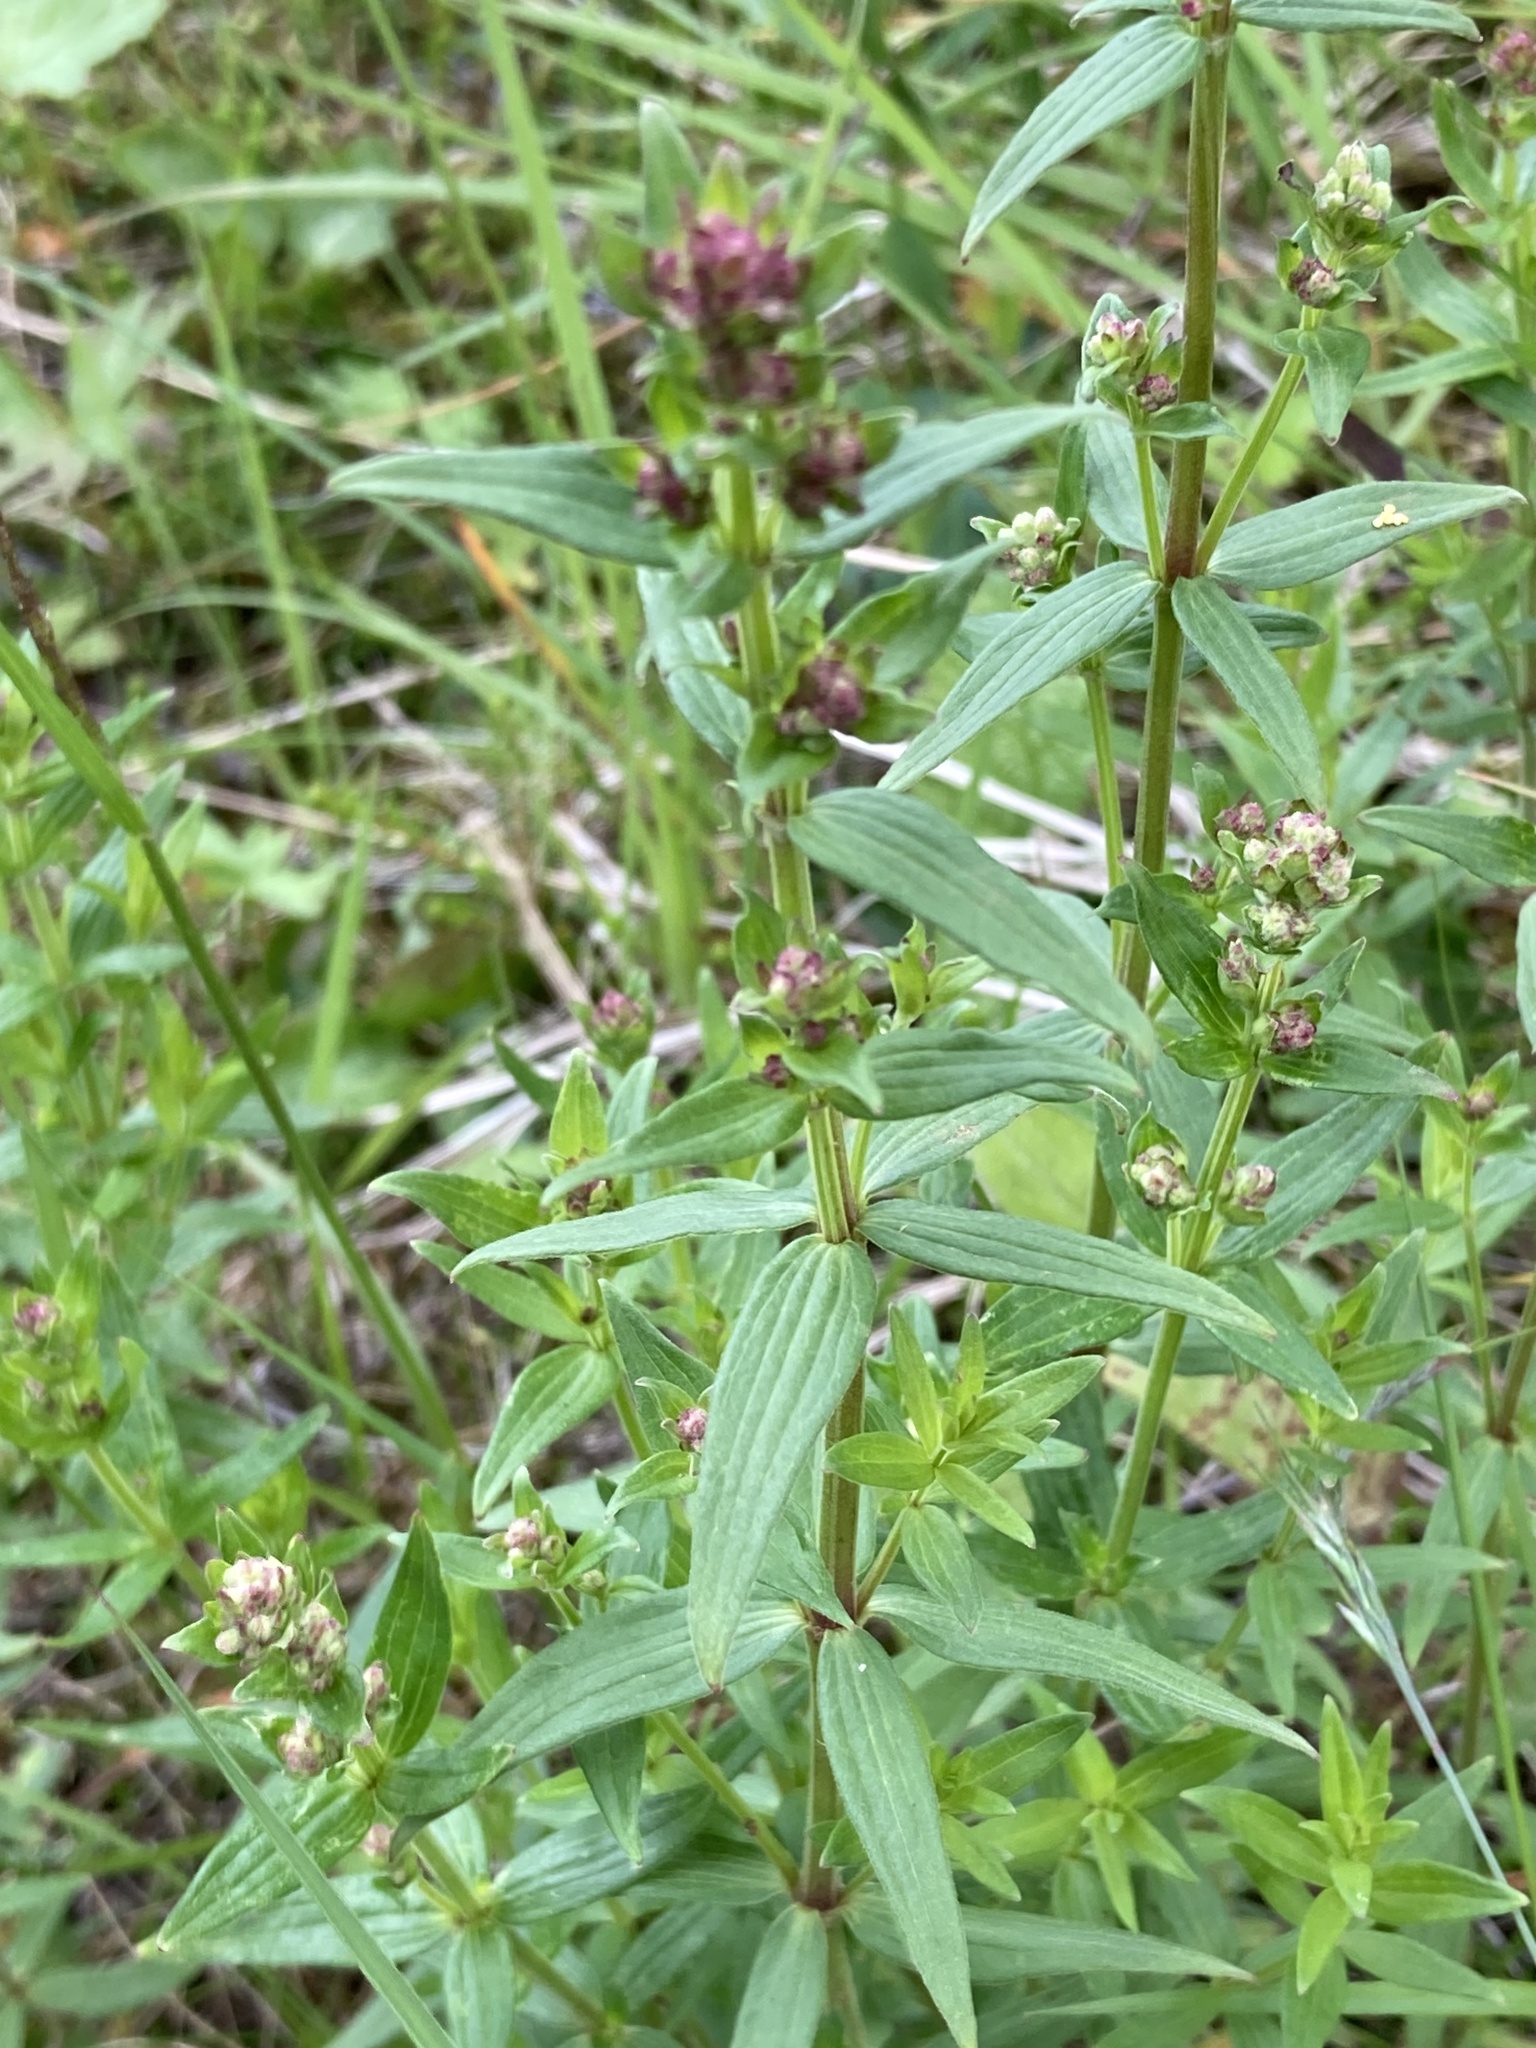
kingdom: Plantae
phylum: Tracheophyta
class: Magnoliopsida
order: Gentianales
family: Rubiaceae
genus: Galium
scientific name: Galium boreale
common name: Northern bedstraw
